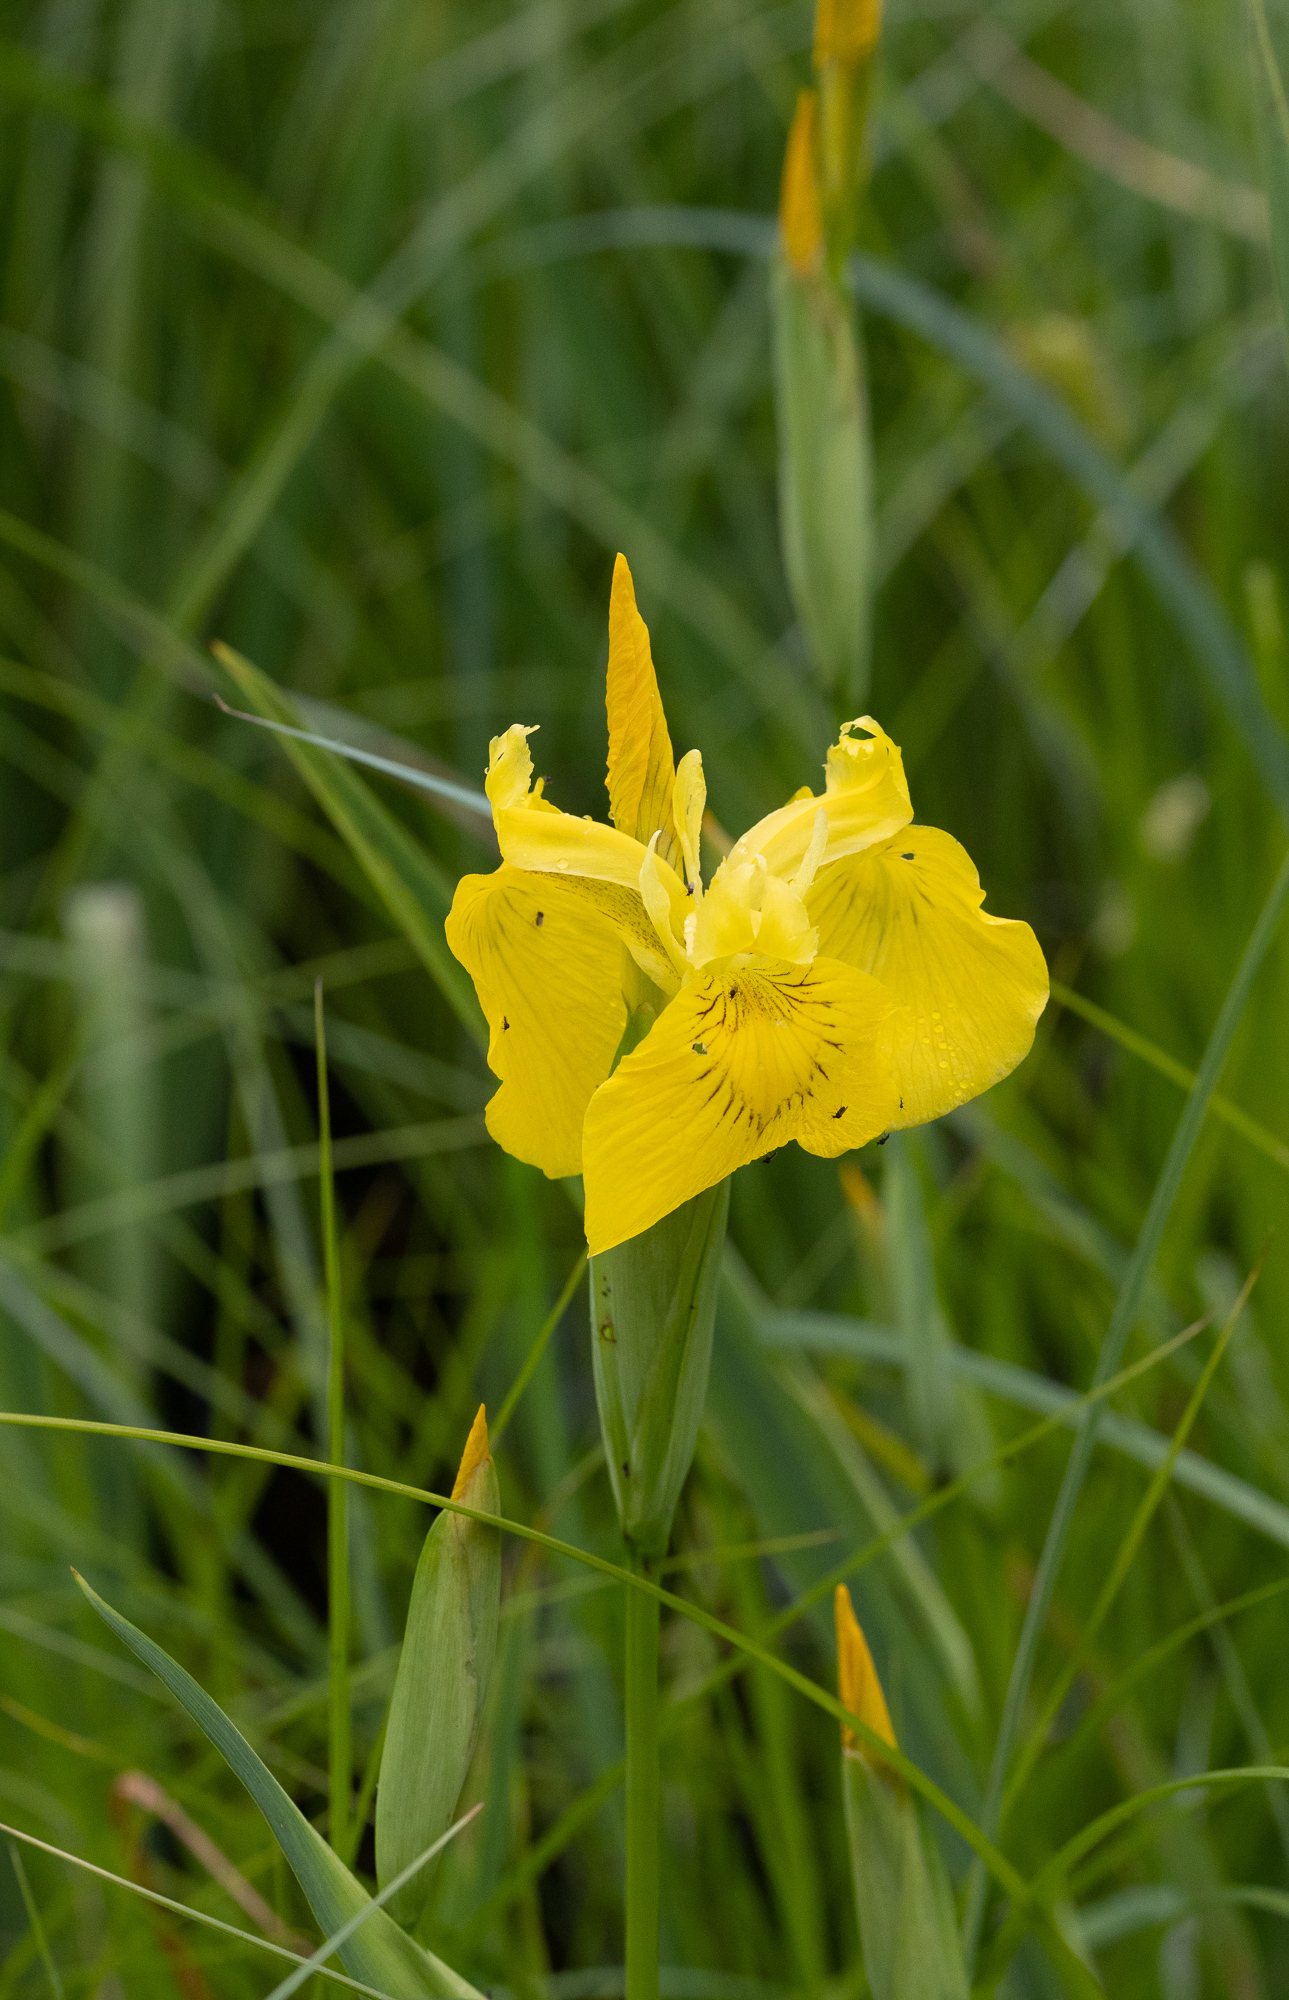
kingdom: Plantae
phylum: Tracheophyta
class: Liliopsida
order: Asparagales
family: Iridaceae
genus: Iris
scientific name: Iris pseudacorus
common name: Yellow flag
